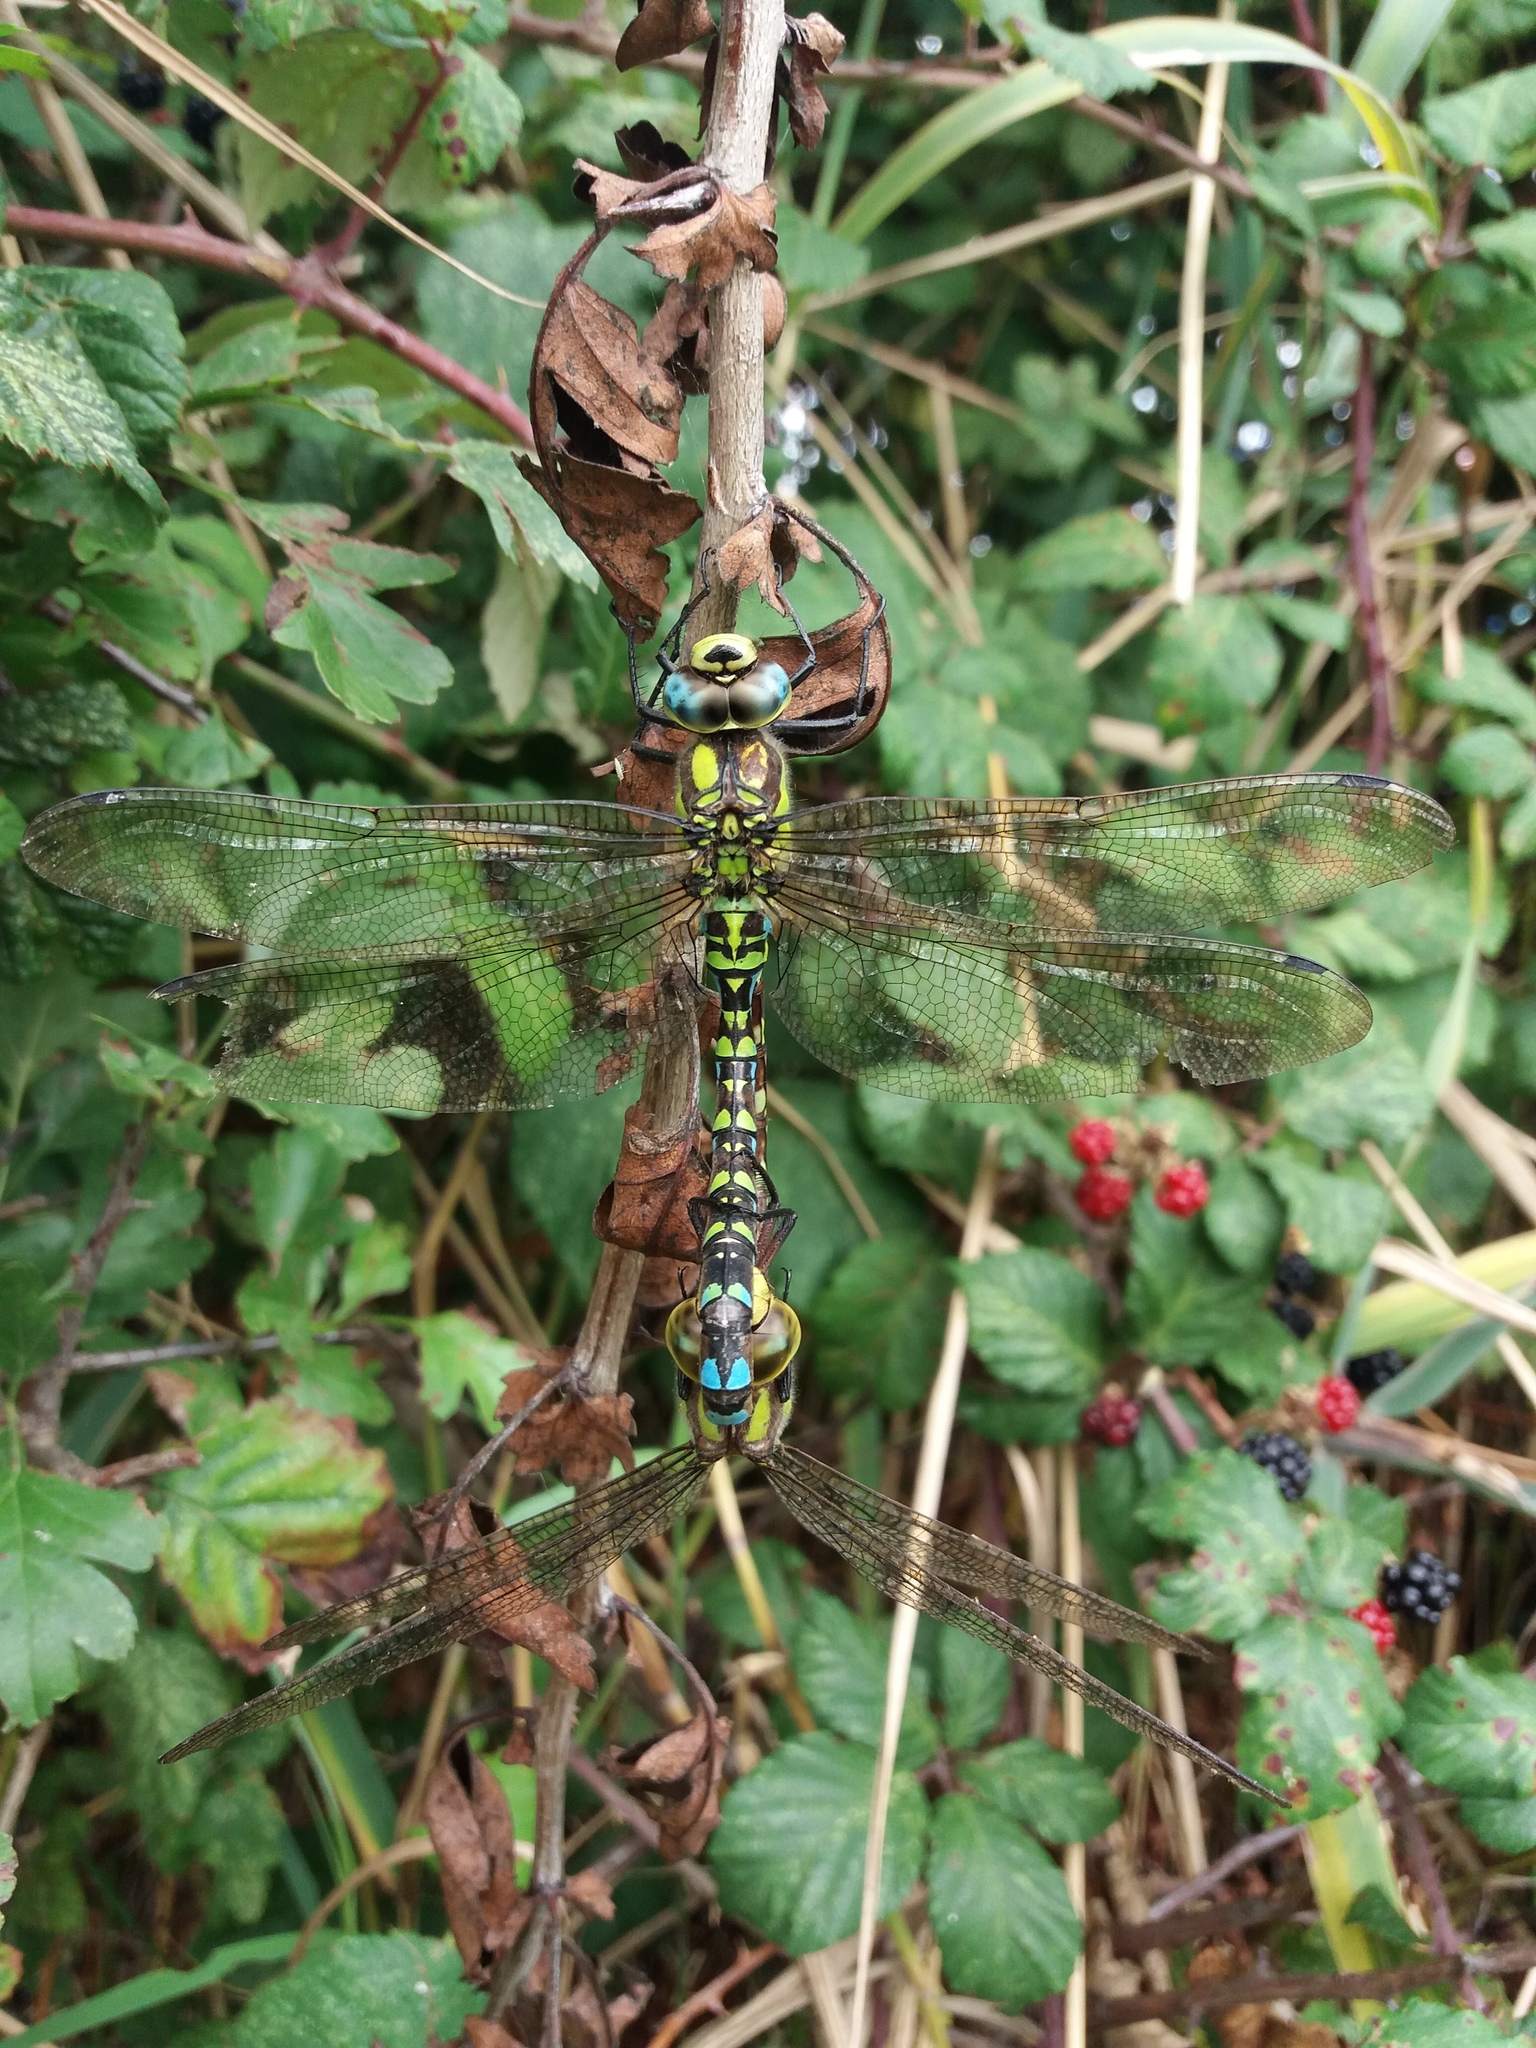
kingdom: Animalia
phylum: Arthropoda
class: Insecta
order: Odonata
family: Aeshnidae
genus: Aeshna
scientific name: Aeshna cyanea
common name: Southern hawker
